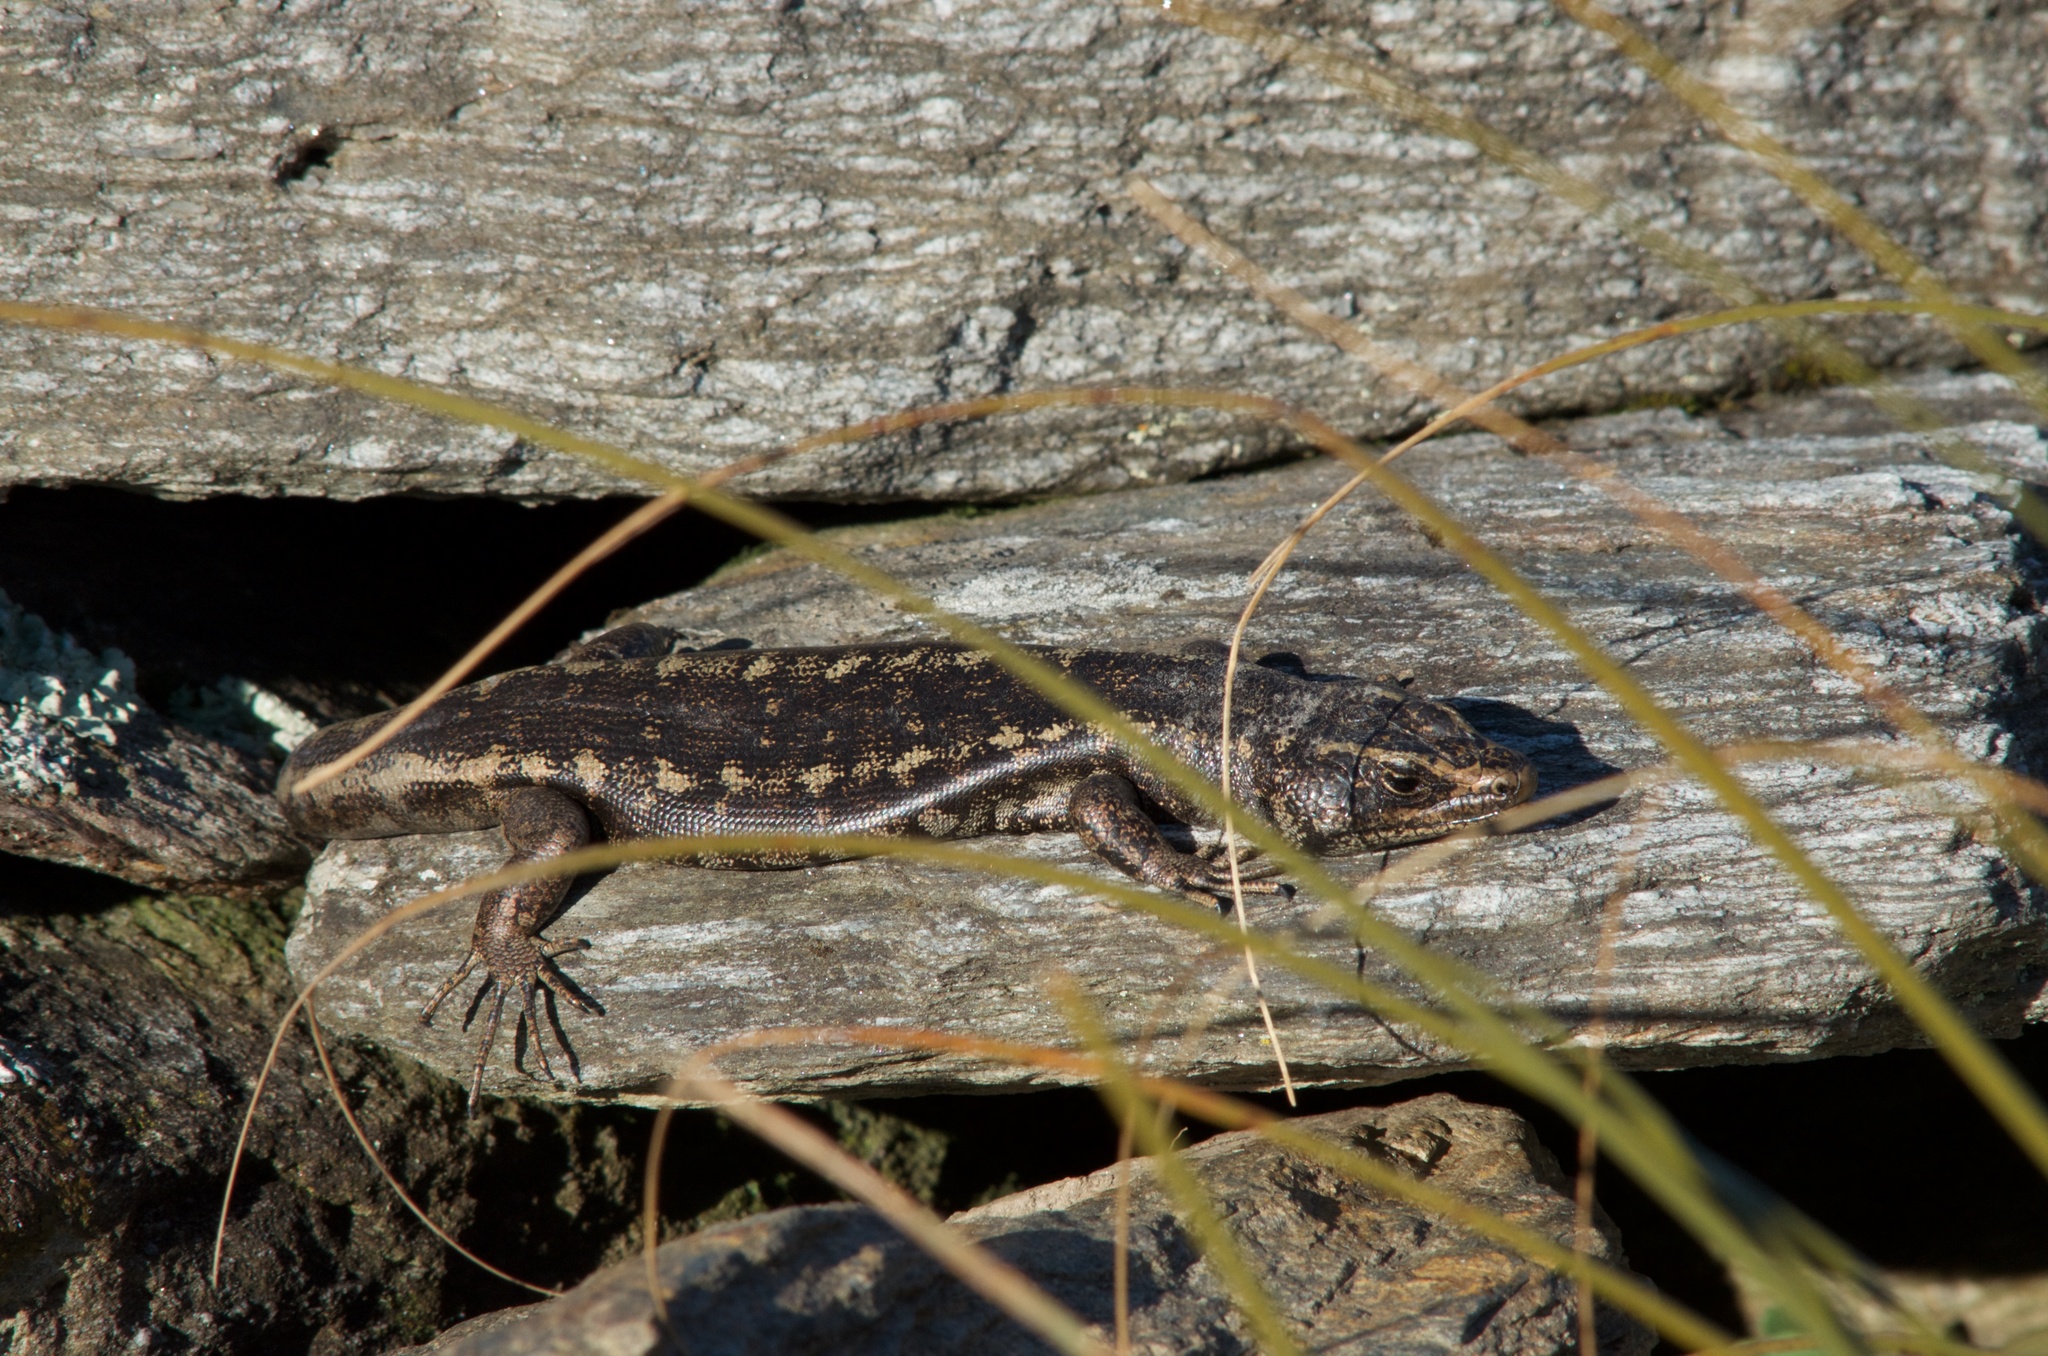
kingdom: Animalia
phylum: Chordata
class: Squamata
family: Scincidae
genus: Oligosoma
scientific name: Oligosoma otagense
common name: Otago skink
